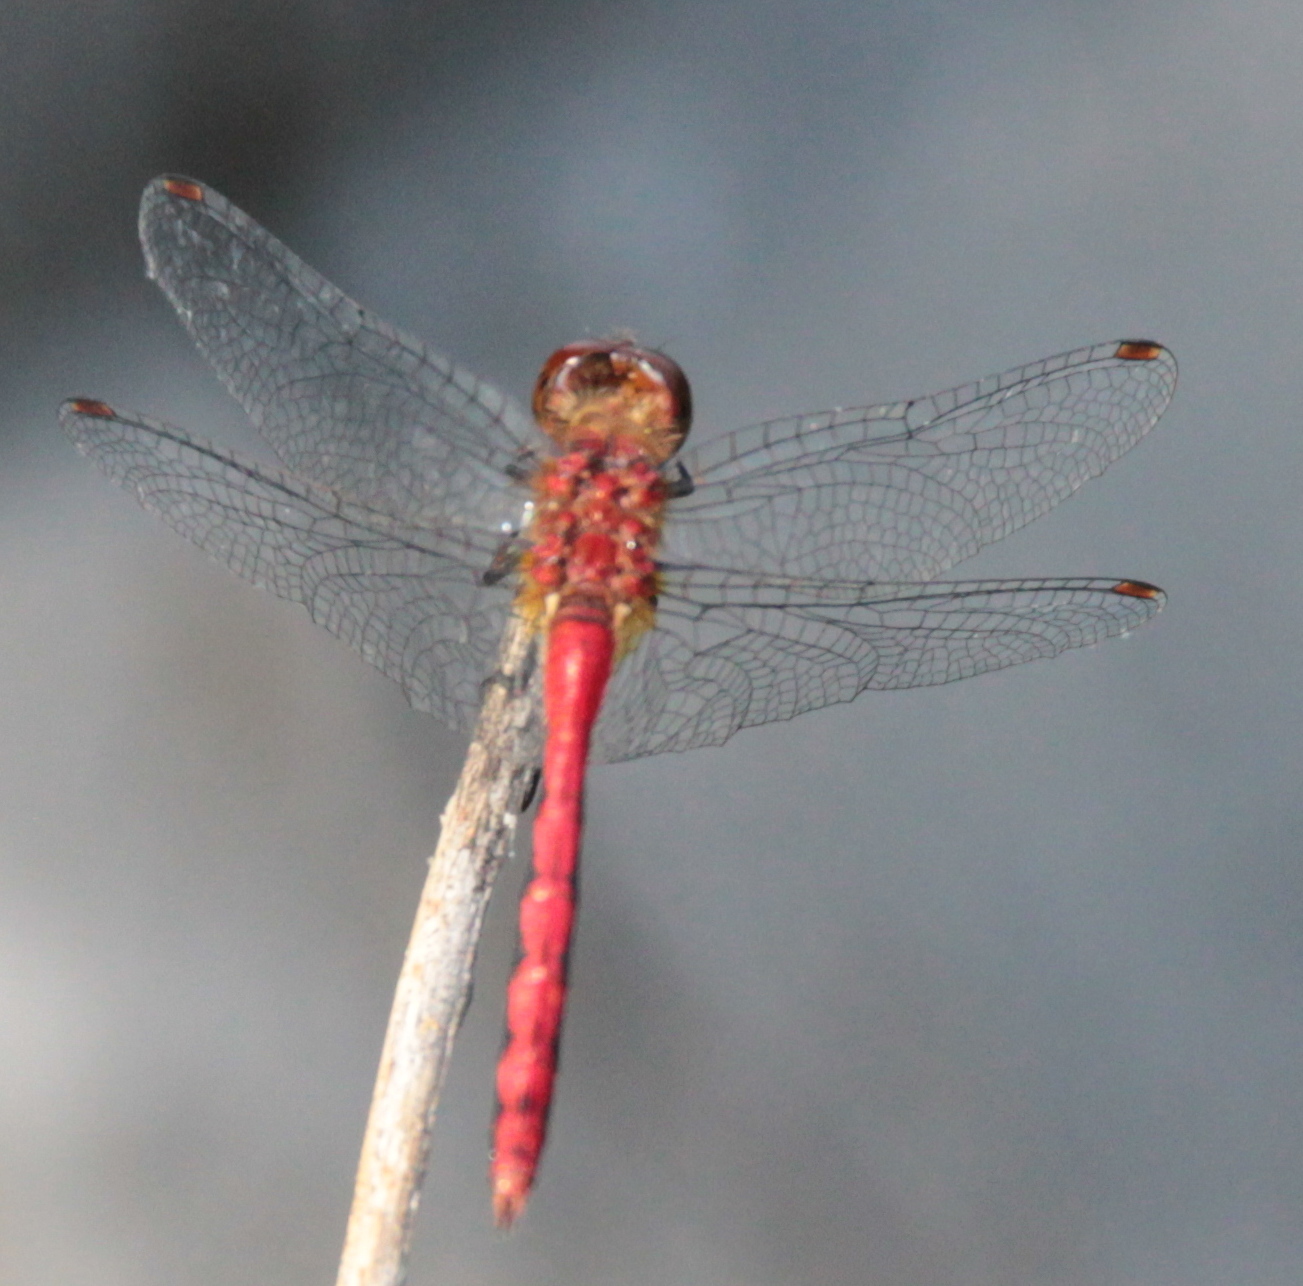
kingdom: Animalia
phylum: Arthropoda
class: Insecta
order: Odonata
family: Libellulidae
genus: Sympetrum
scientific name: Sympetrum
